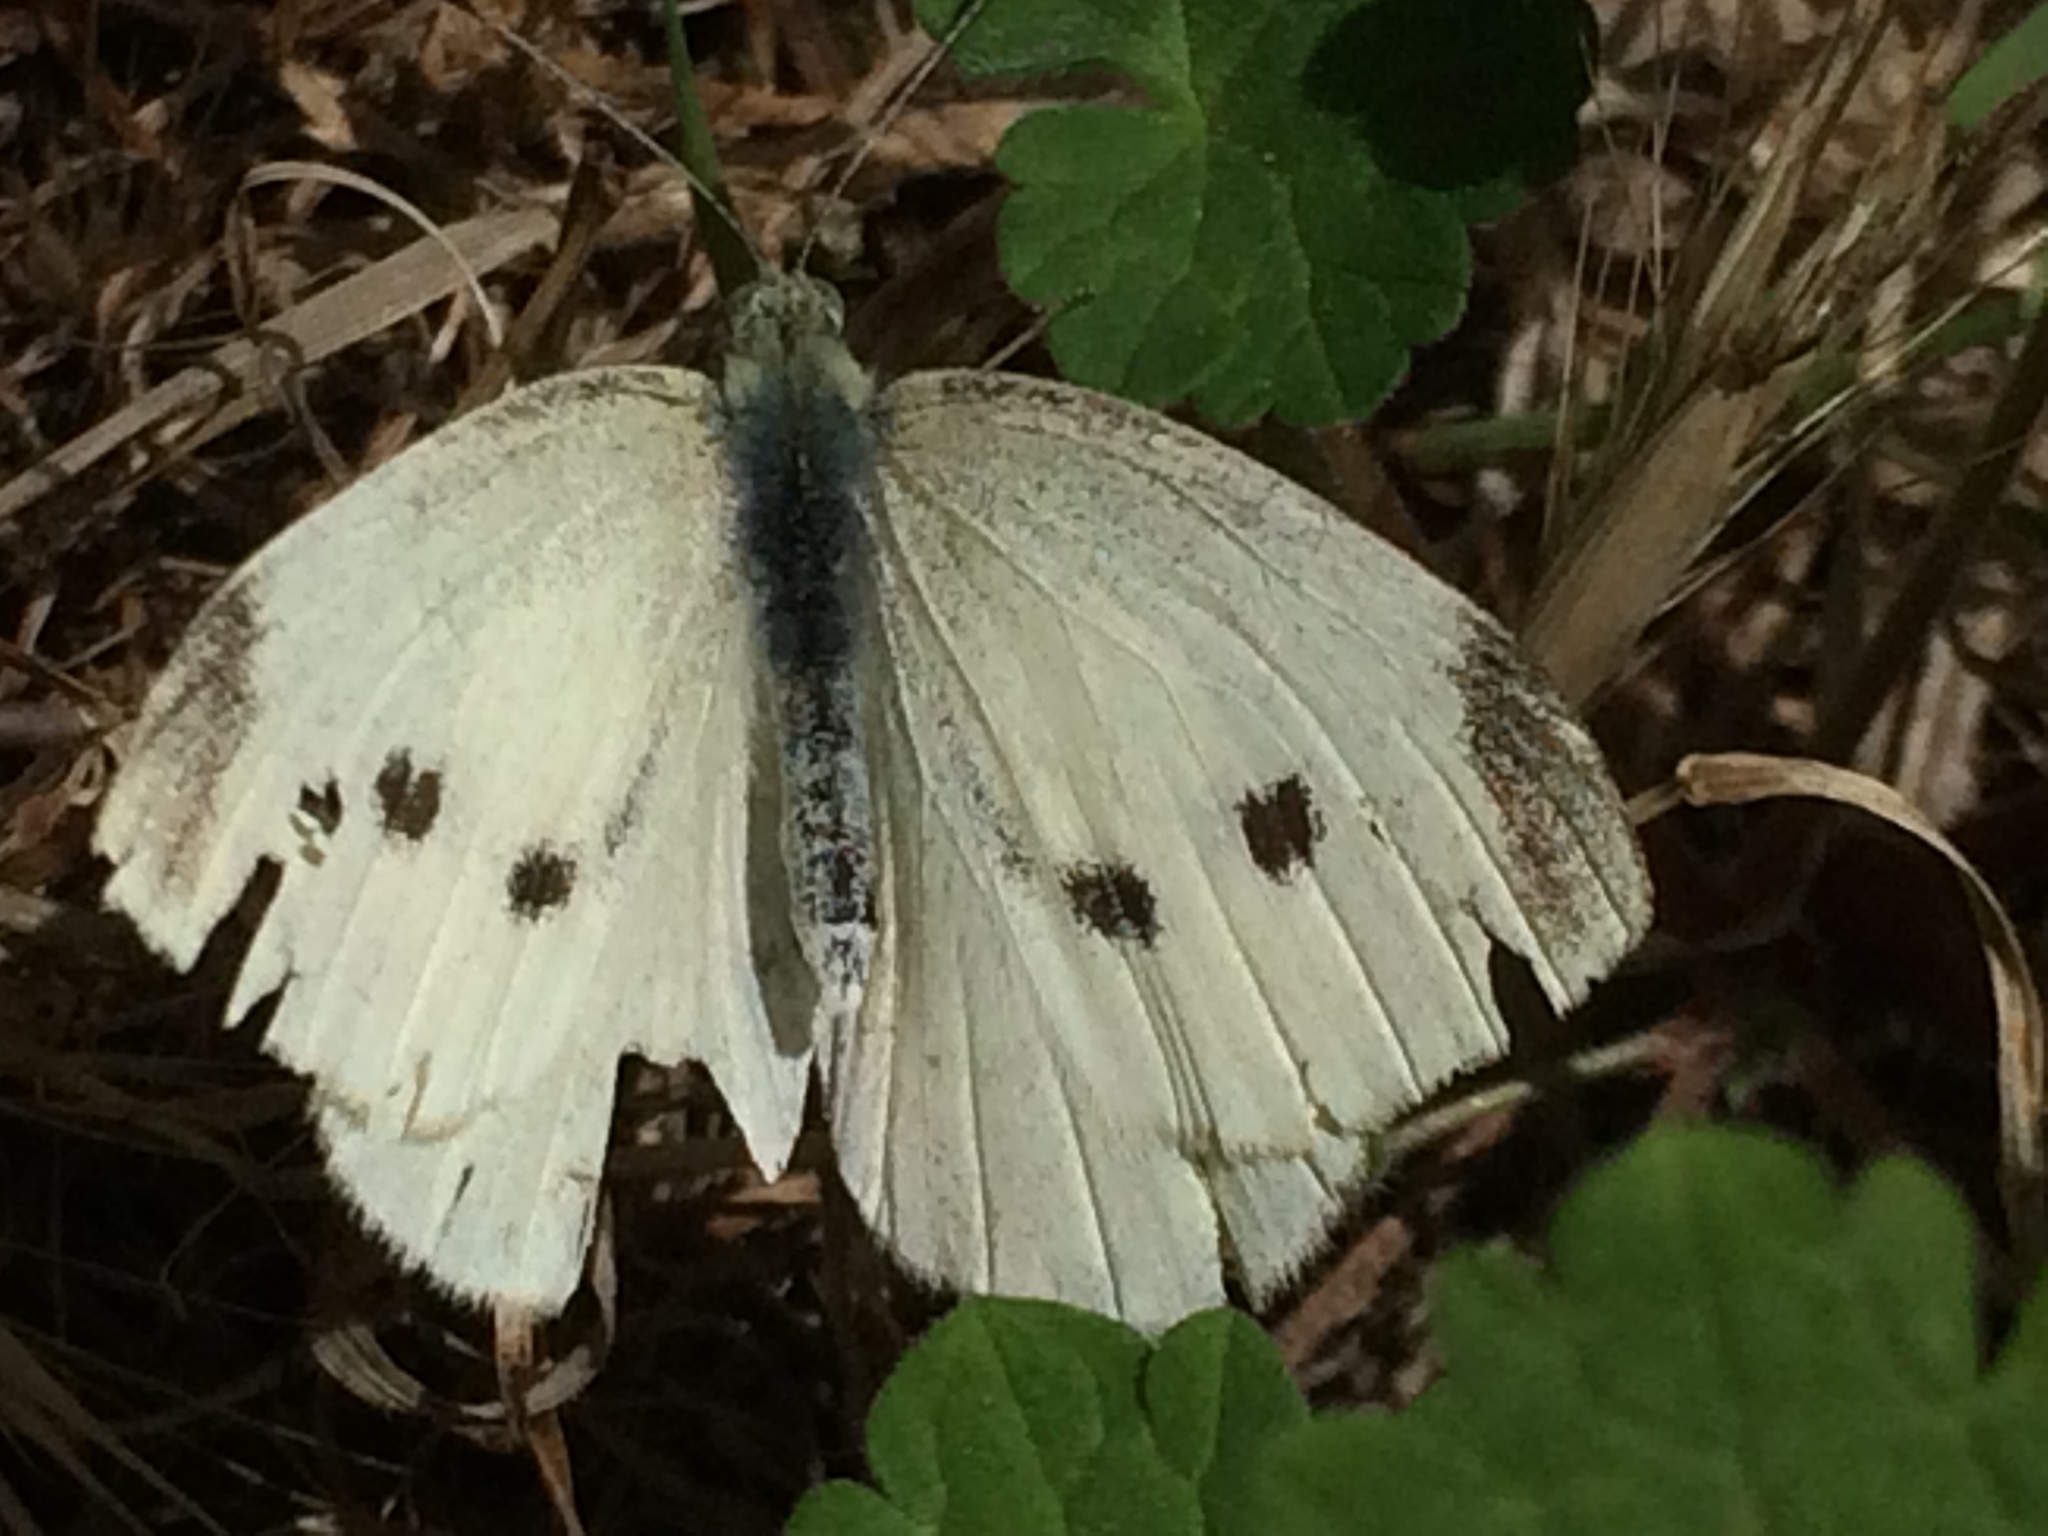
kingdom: Animalia
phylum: Arthropoda
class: Insecta
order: Lepidoptera
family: Pieridae
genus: Pieris
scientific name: Pieris rapae
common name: Small white
